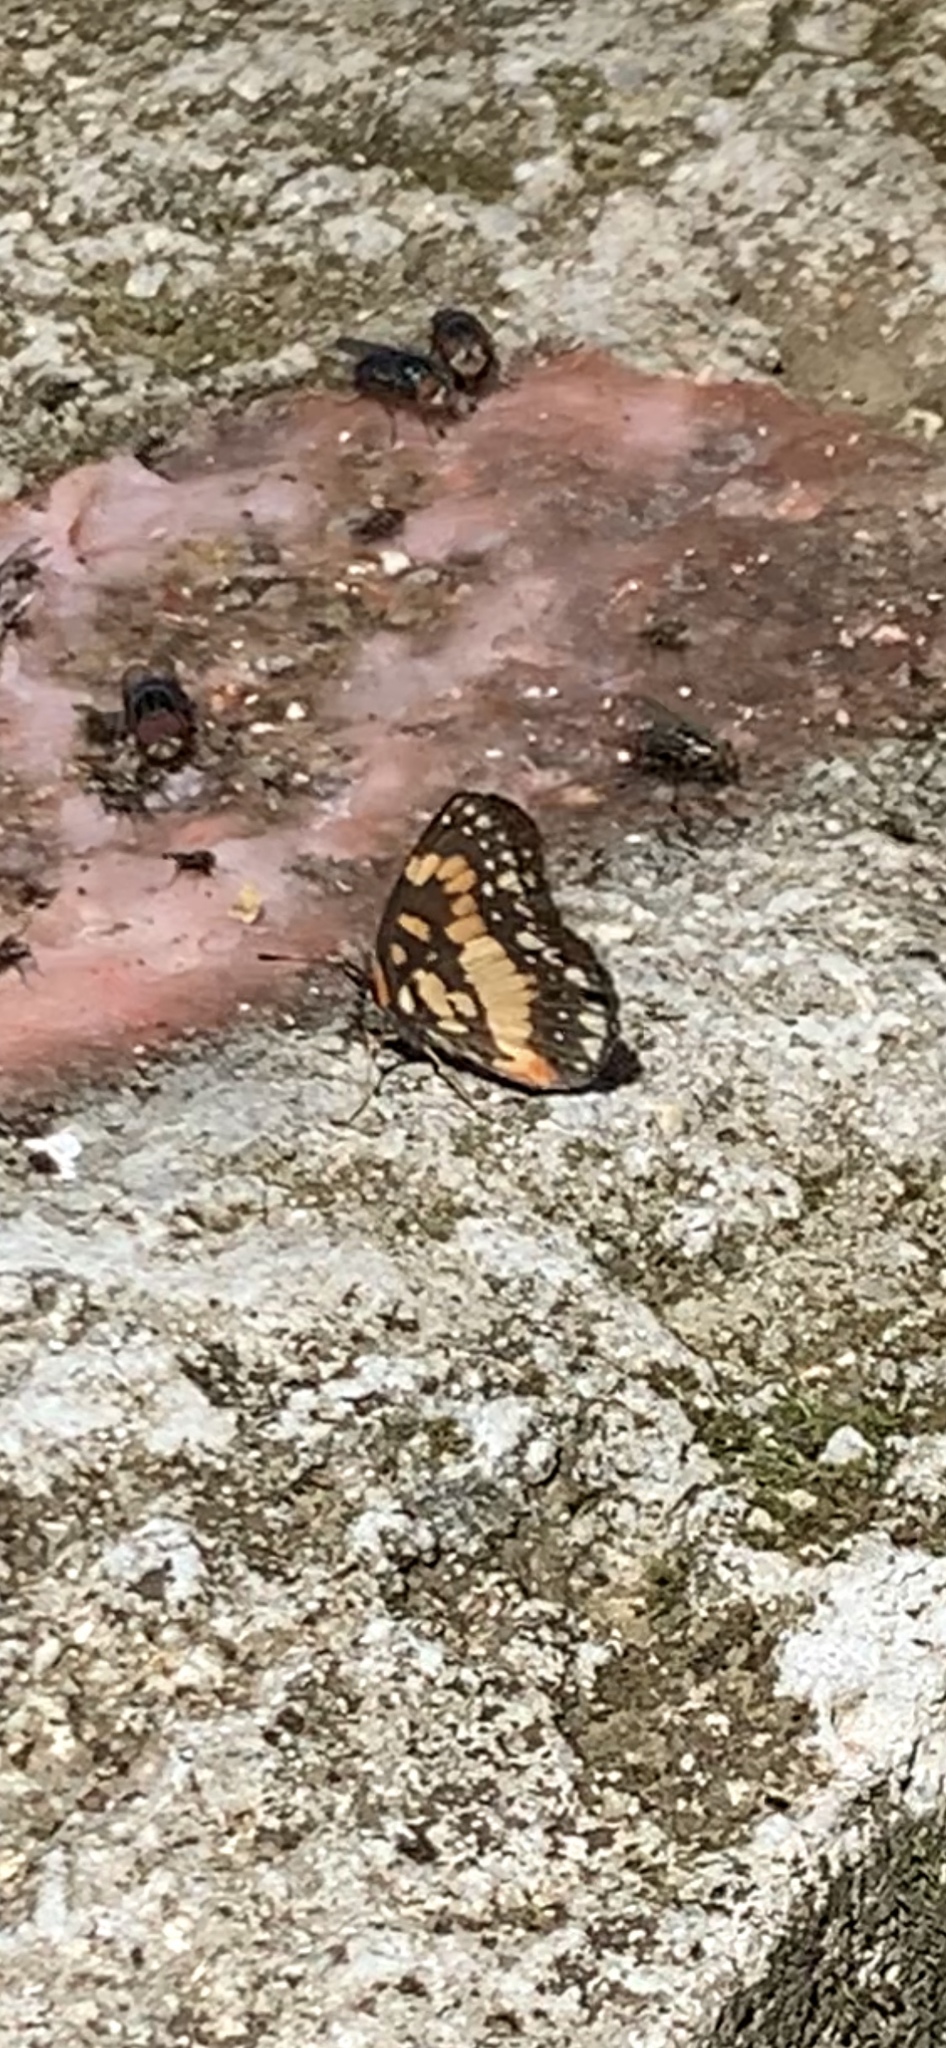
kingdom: Animalia
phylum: Arthropoda
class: Insecta
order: Lepidoptera
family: Nymphalidae
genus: Chlosyne
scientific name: Chlosyne lacinia
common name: Bordered patch
